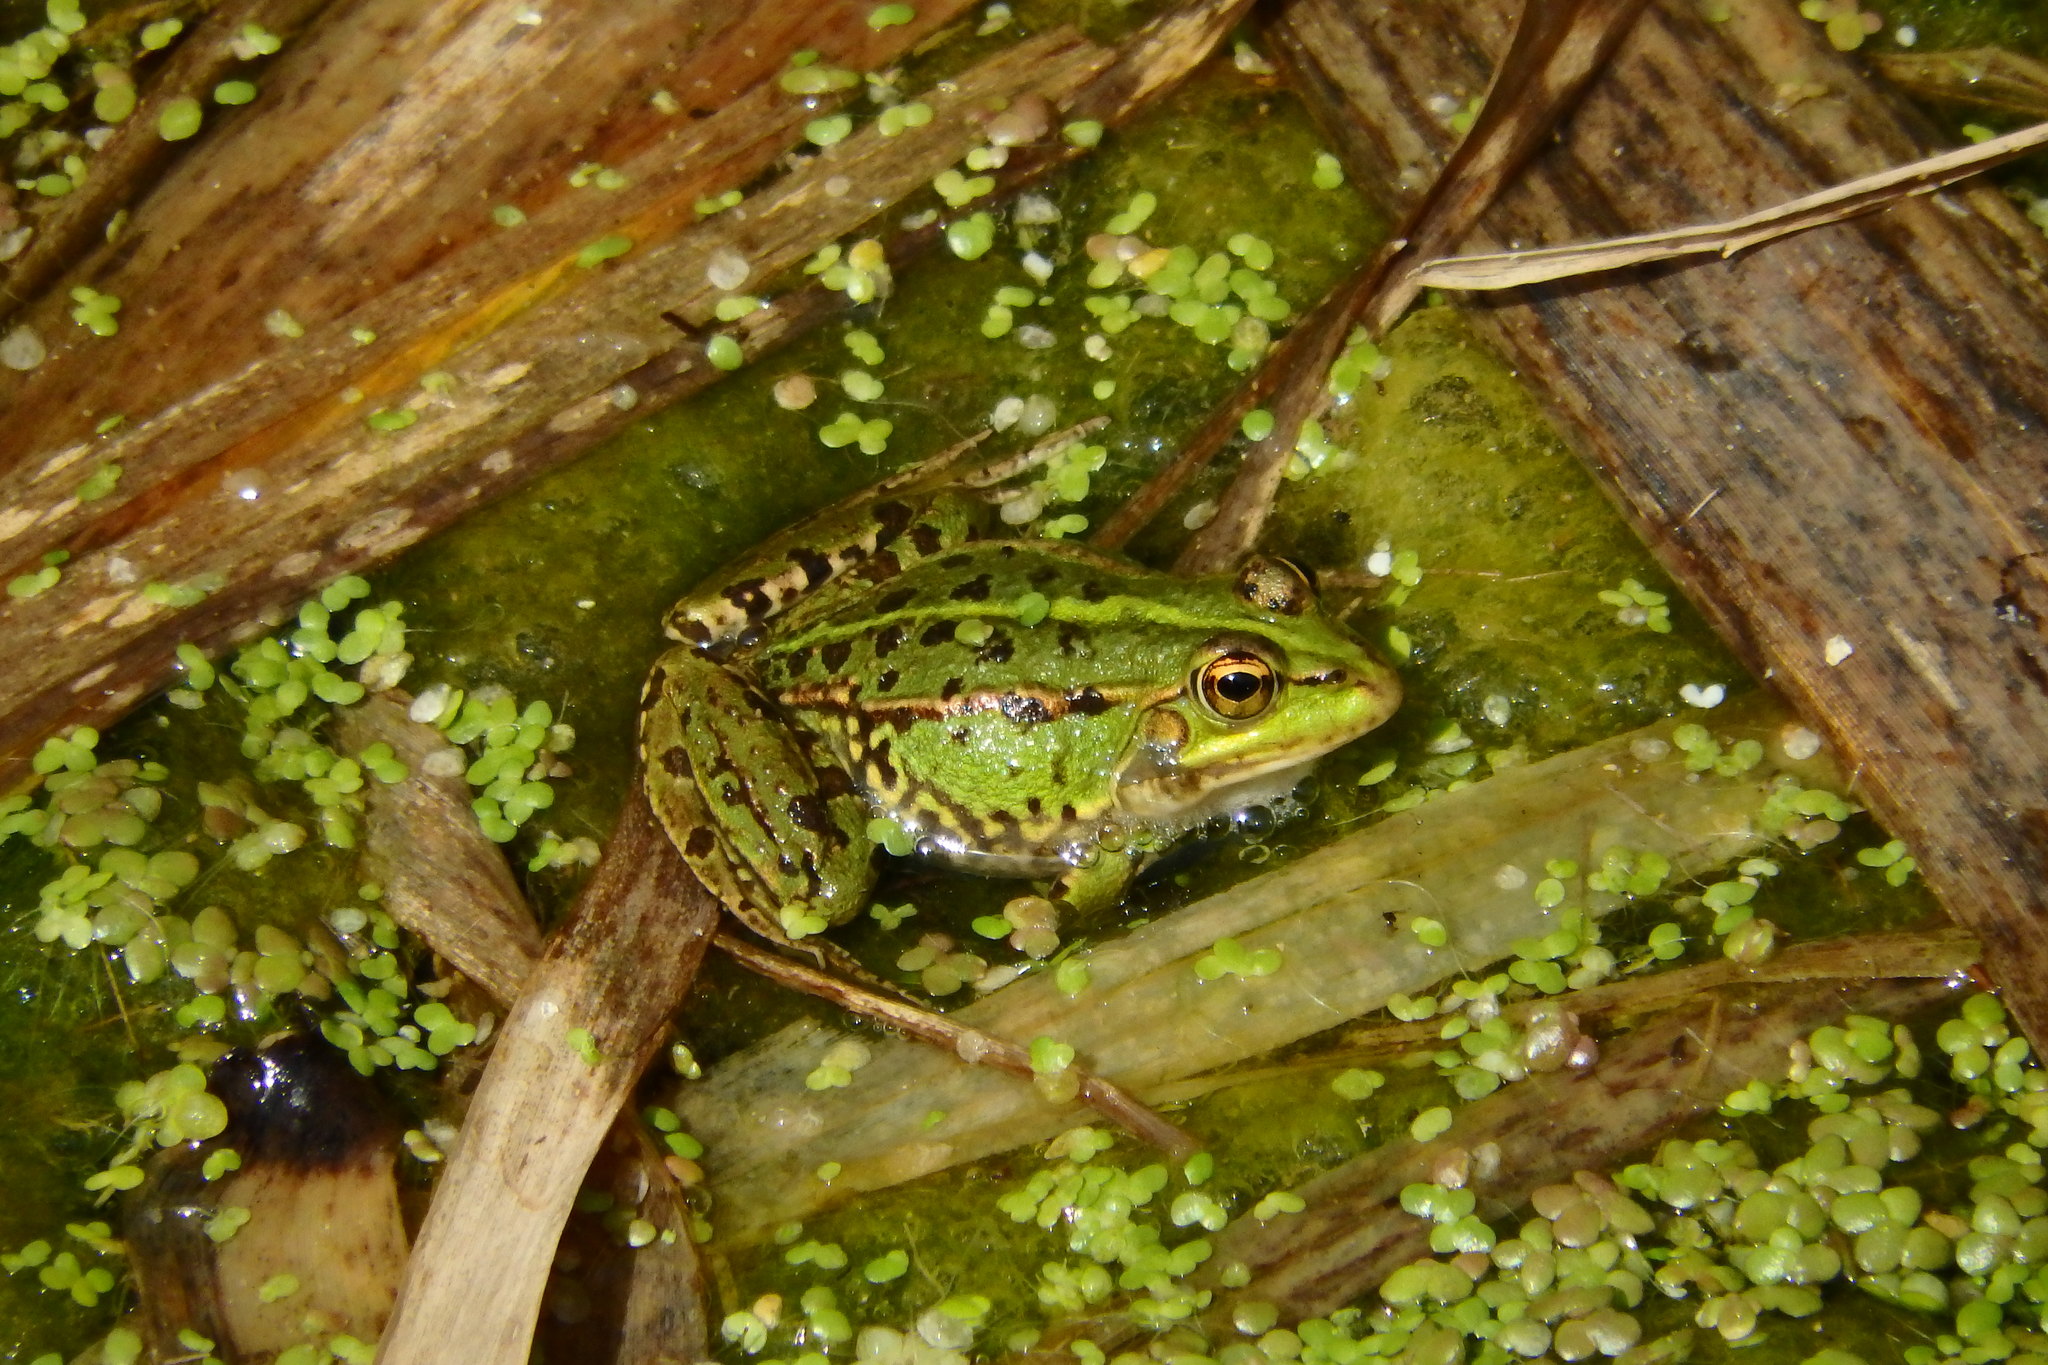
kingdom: Animalia
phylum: Chordata
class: Amphibia
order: Anura
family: Ranidae
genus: Pelophylax
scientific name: Pelophylax perezi
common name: Perez's frog
